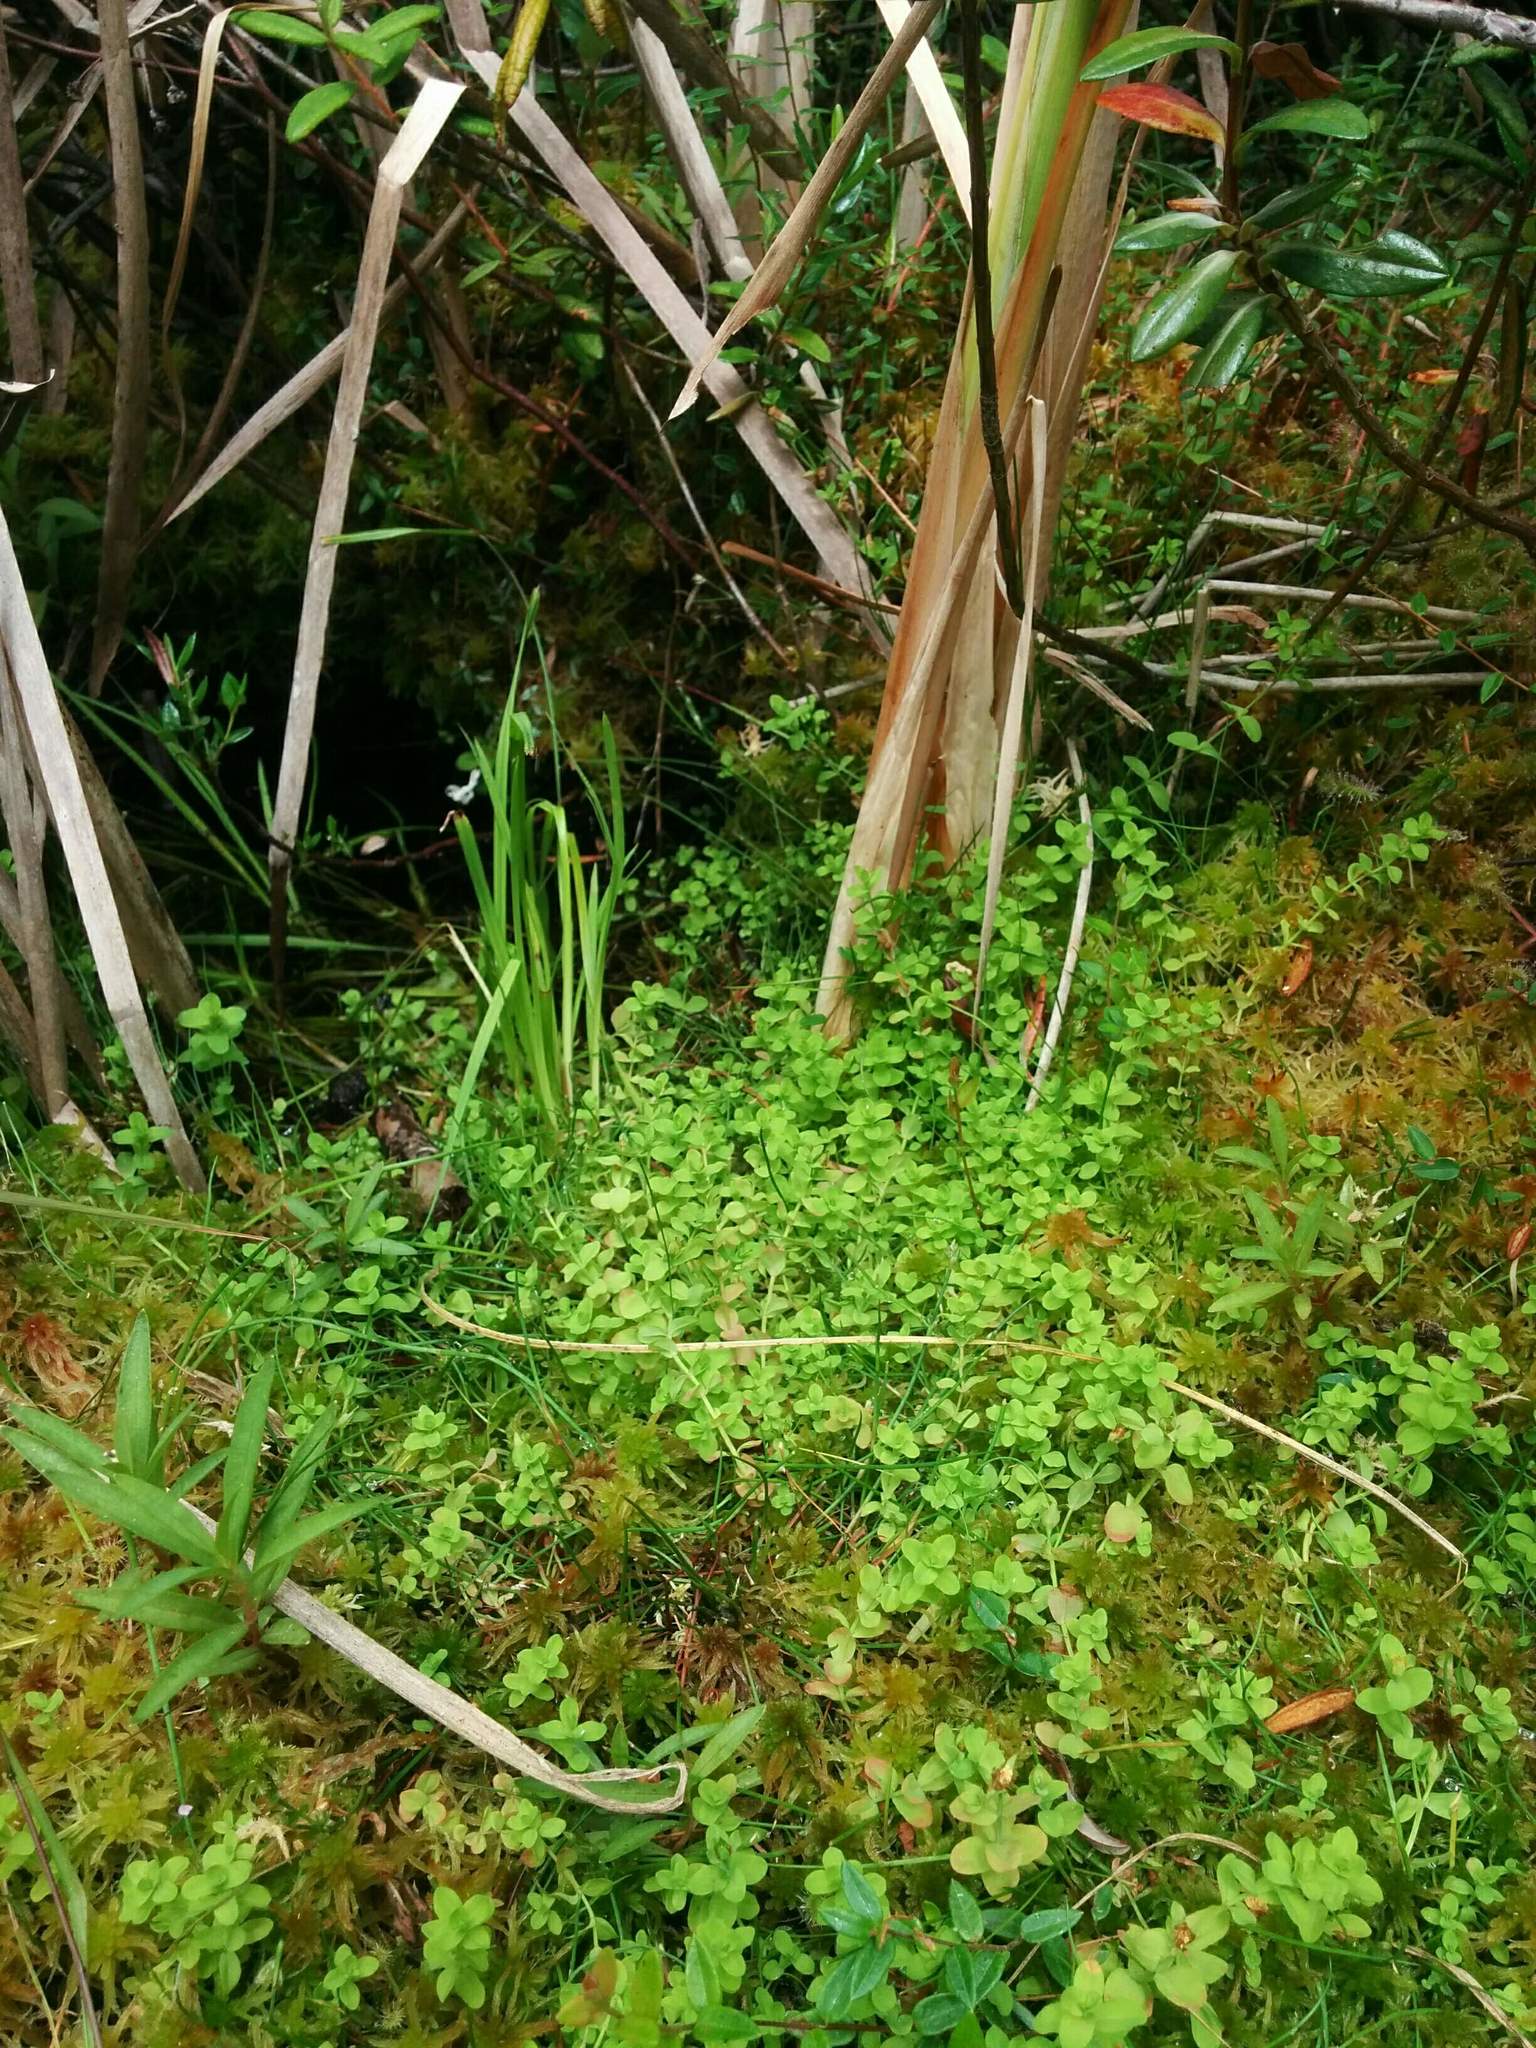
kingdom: Plantae
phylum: Tracheophyta
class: Magnoliopsida
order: Malpighiales
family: Hypericaceae
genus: Hypericum
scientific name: Hypericum anagalloides
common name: Bog st. john's-wort
